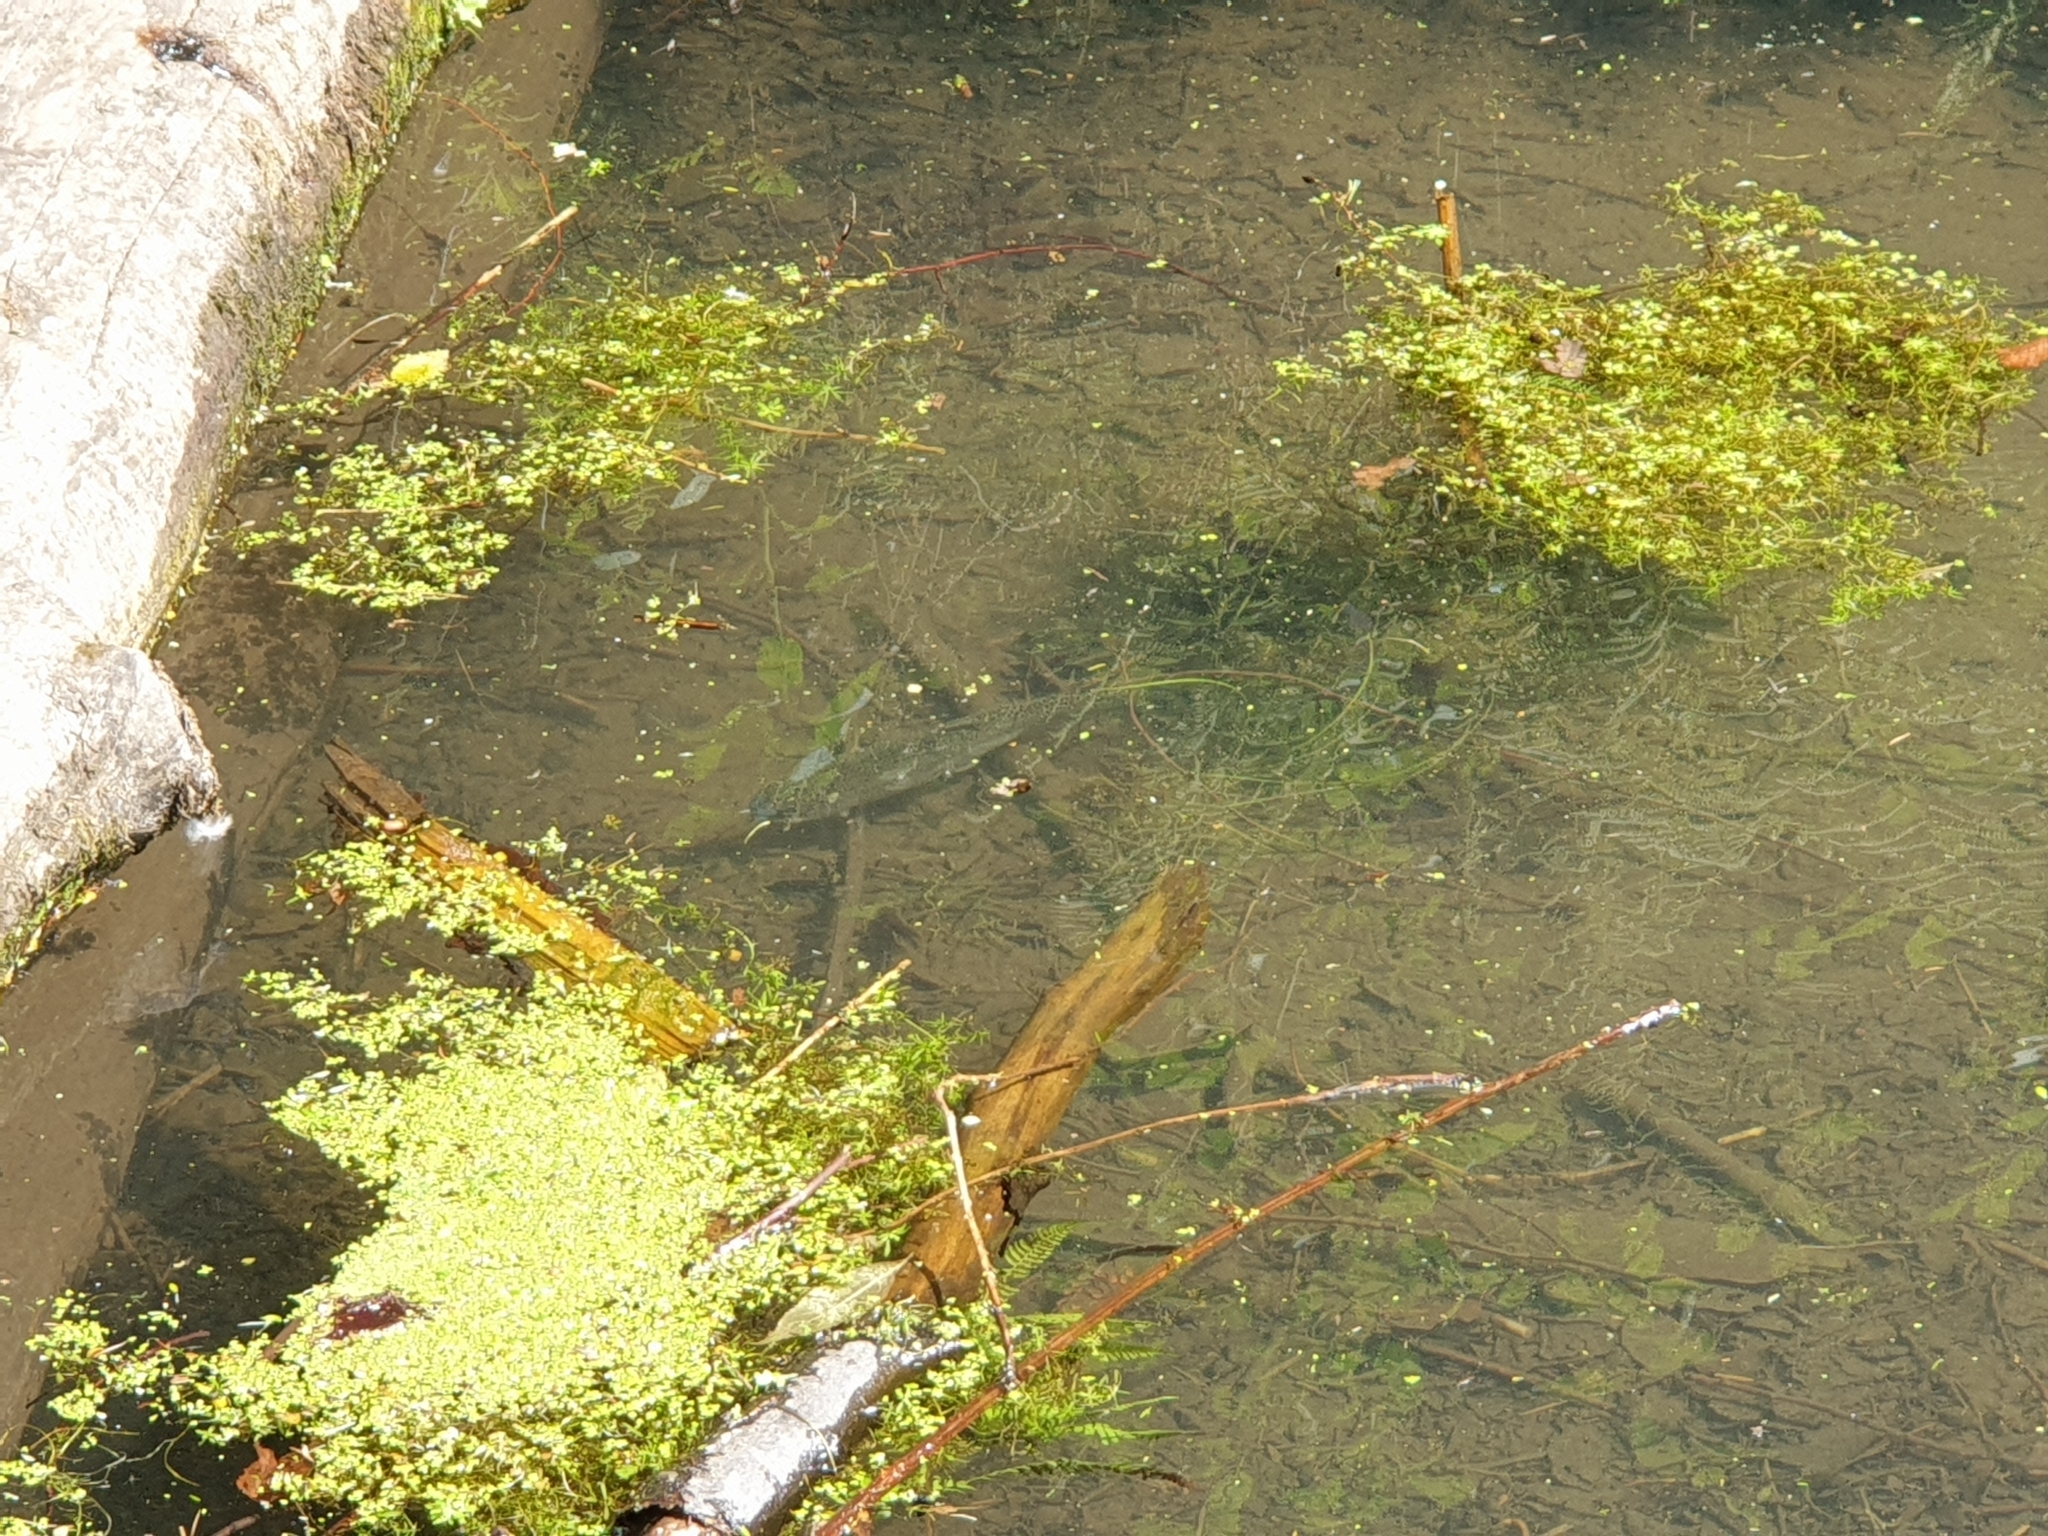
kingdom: Animalia
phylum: Chordata
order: Salmoniformes
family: Salmonidae
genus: Oncorhynchus
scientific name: Oncorhynchus mykiss
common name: Rainbow trout
